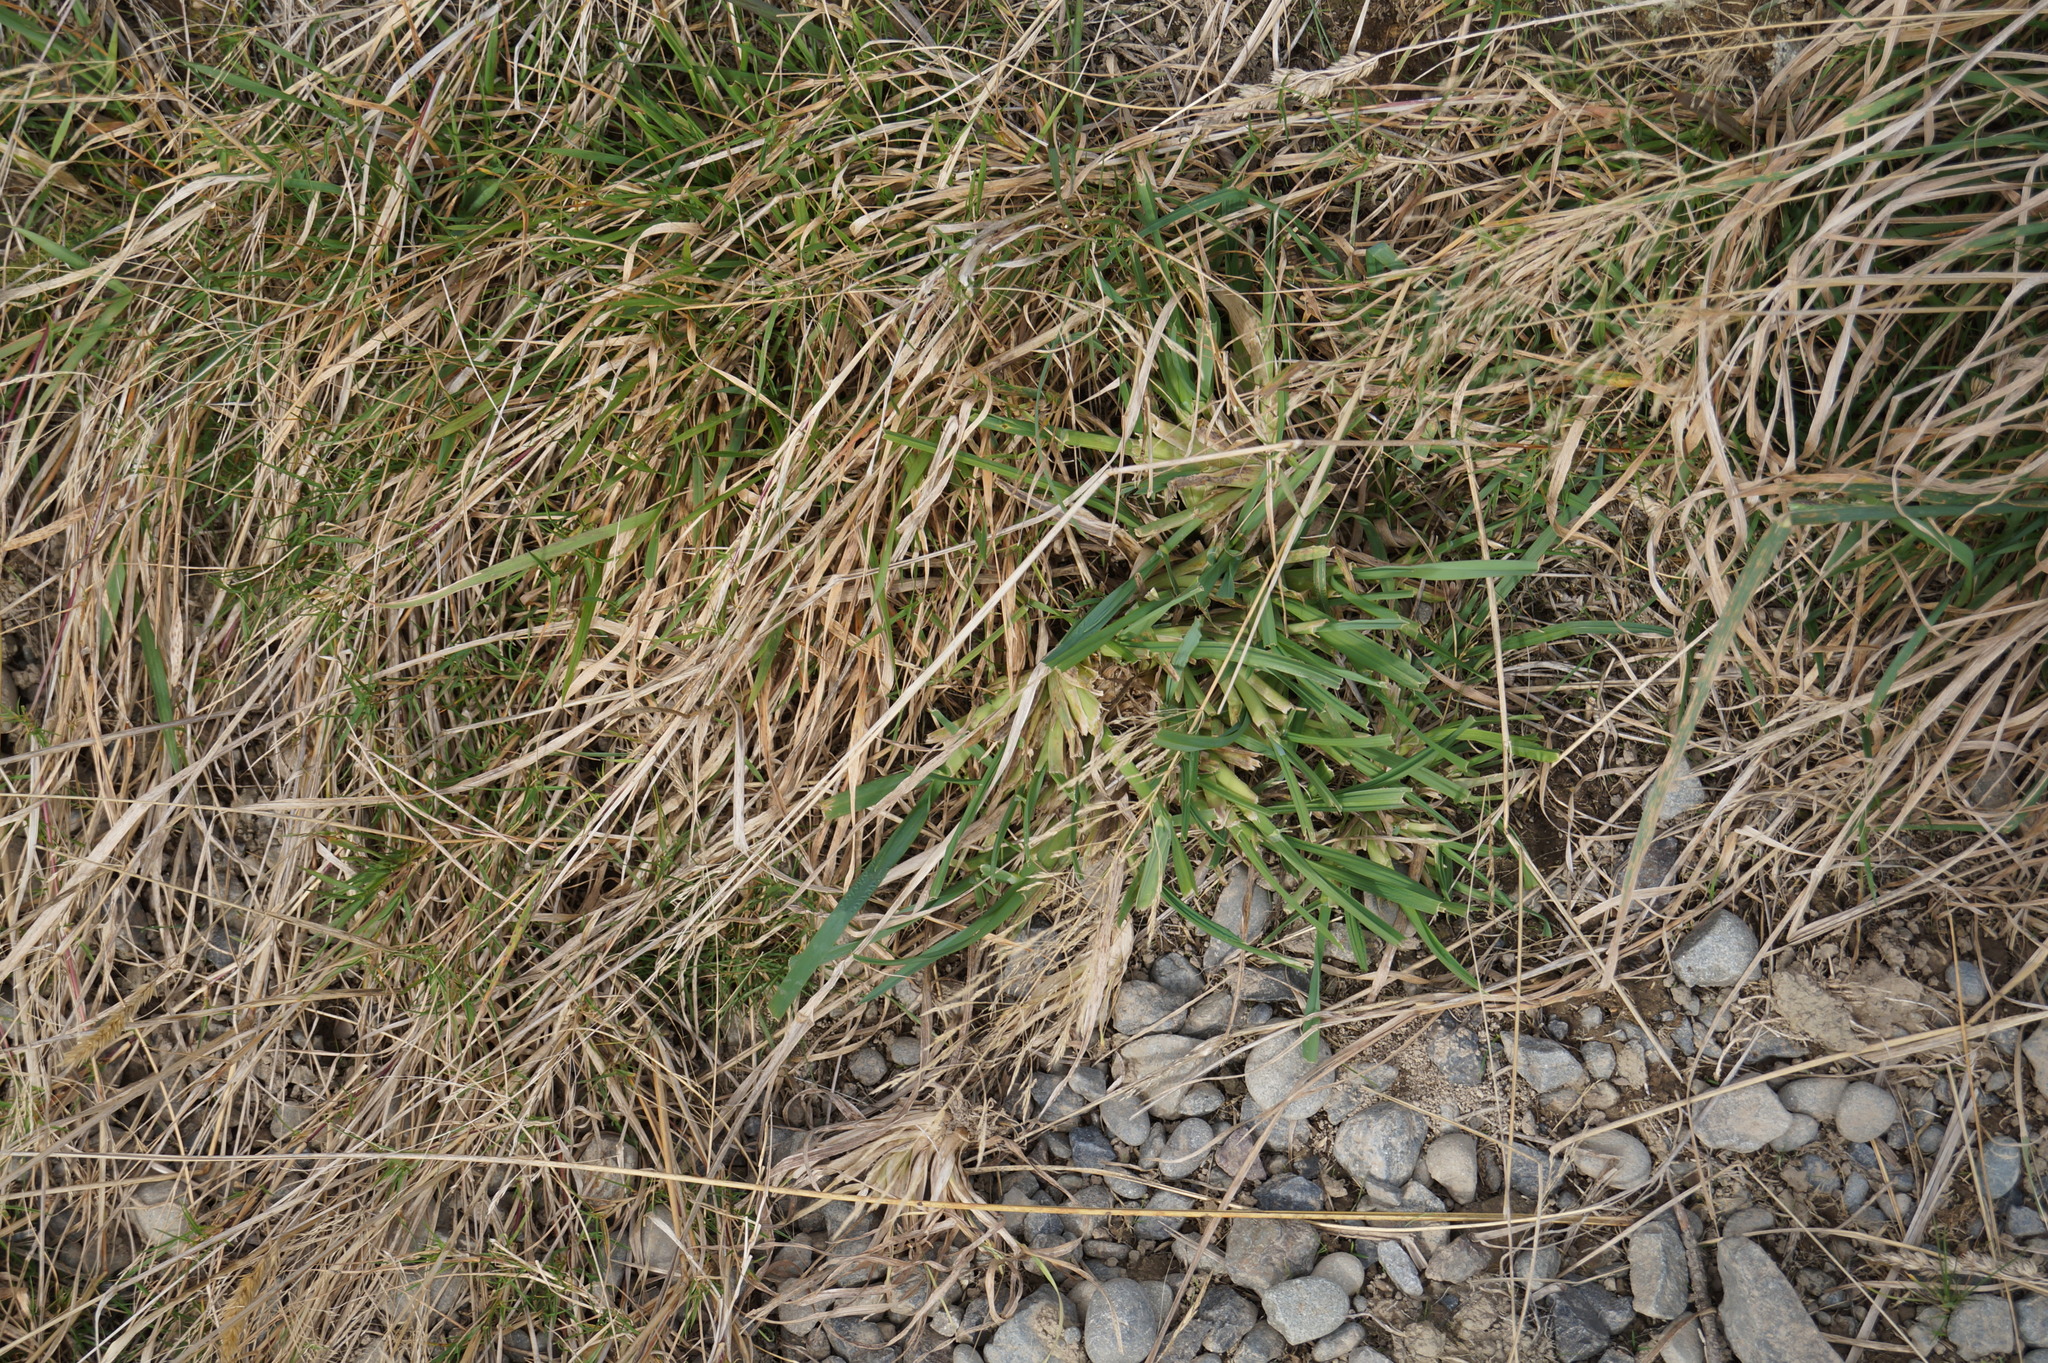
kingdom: Plantae
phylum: Tracheophyta
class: Liliopsida
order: Poales
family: Poaceae
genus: Dactylis
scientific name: Dactylis glomerata
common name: Orchardgrass
